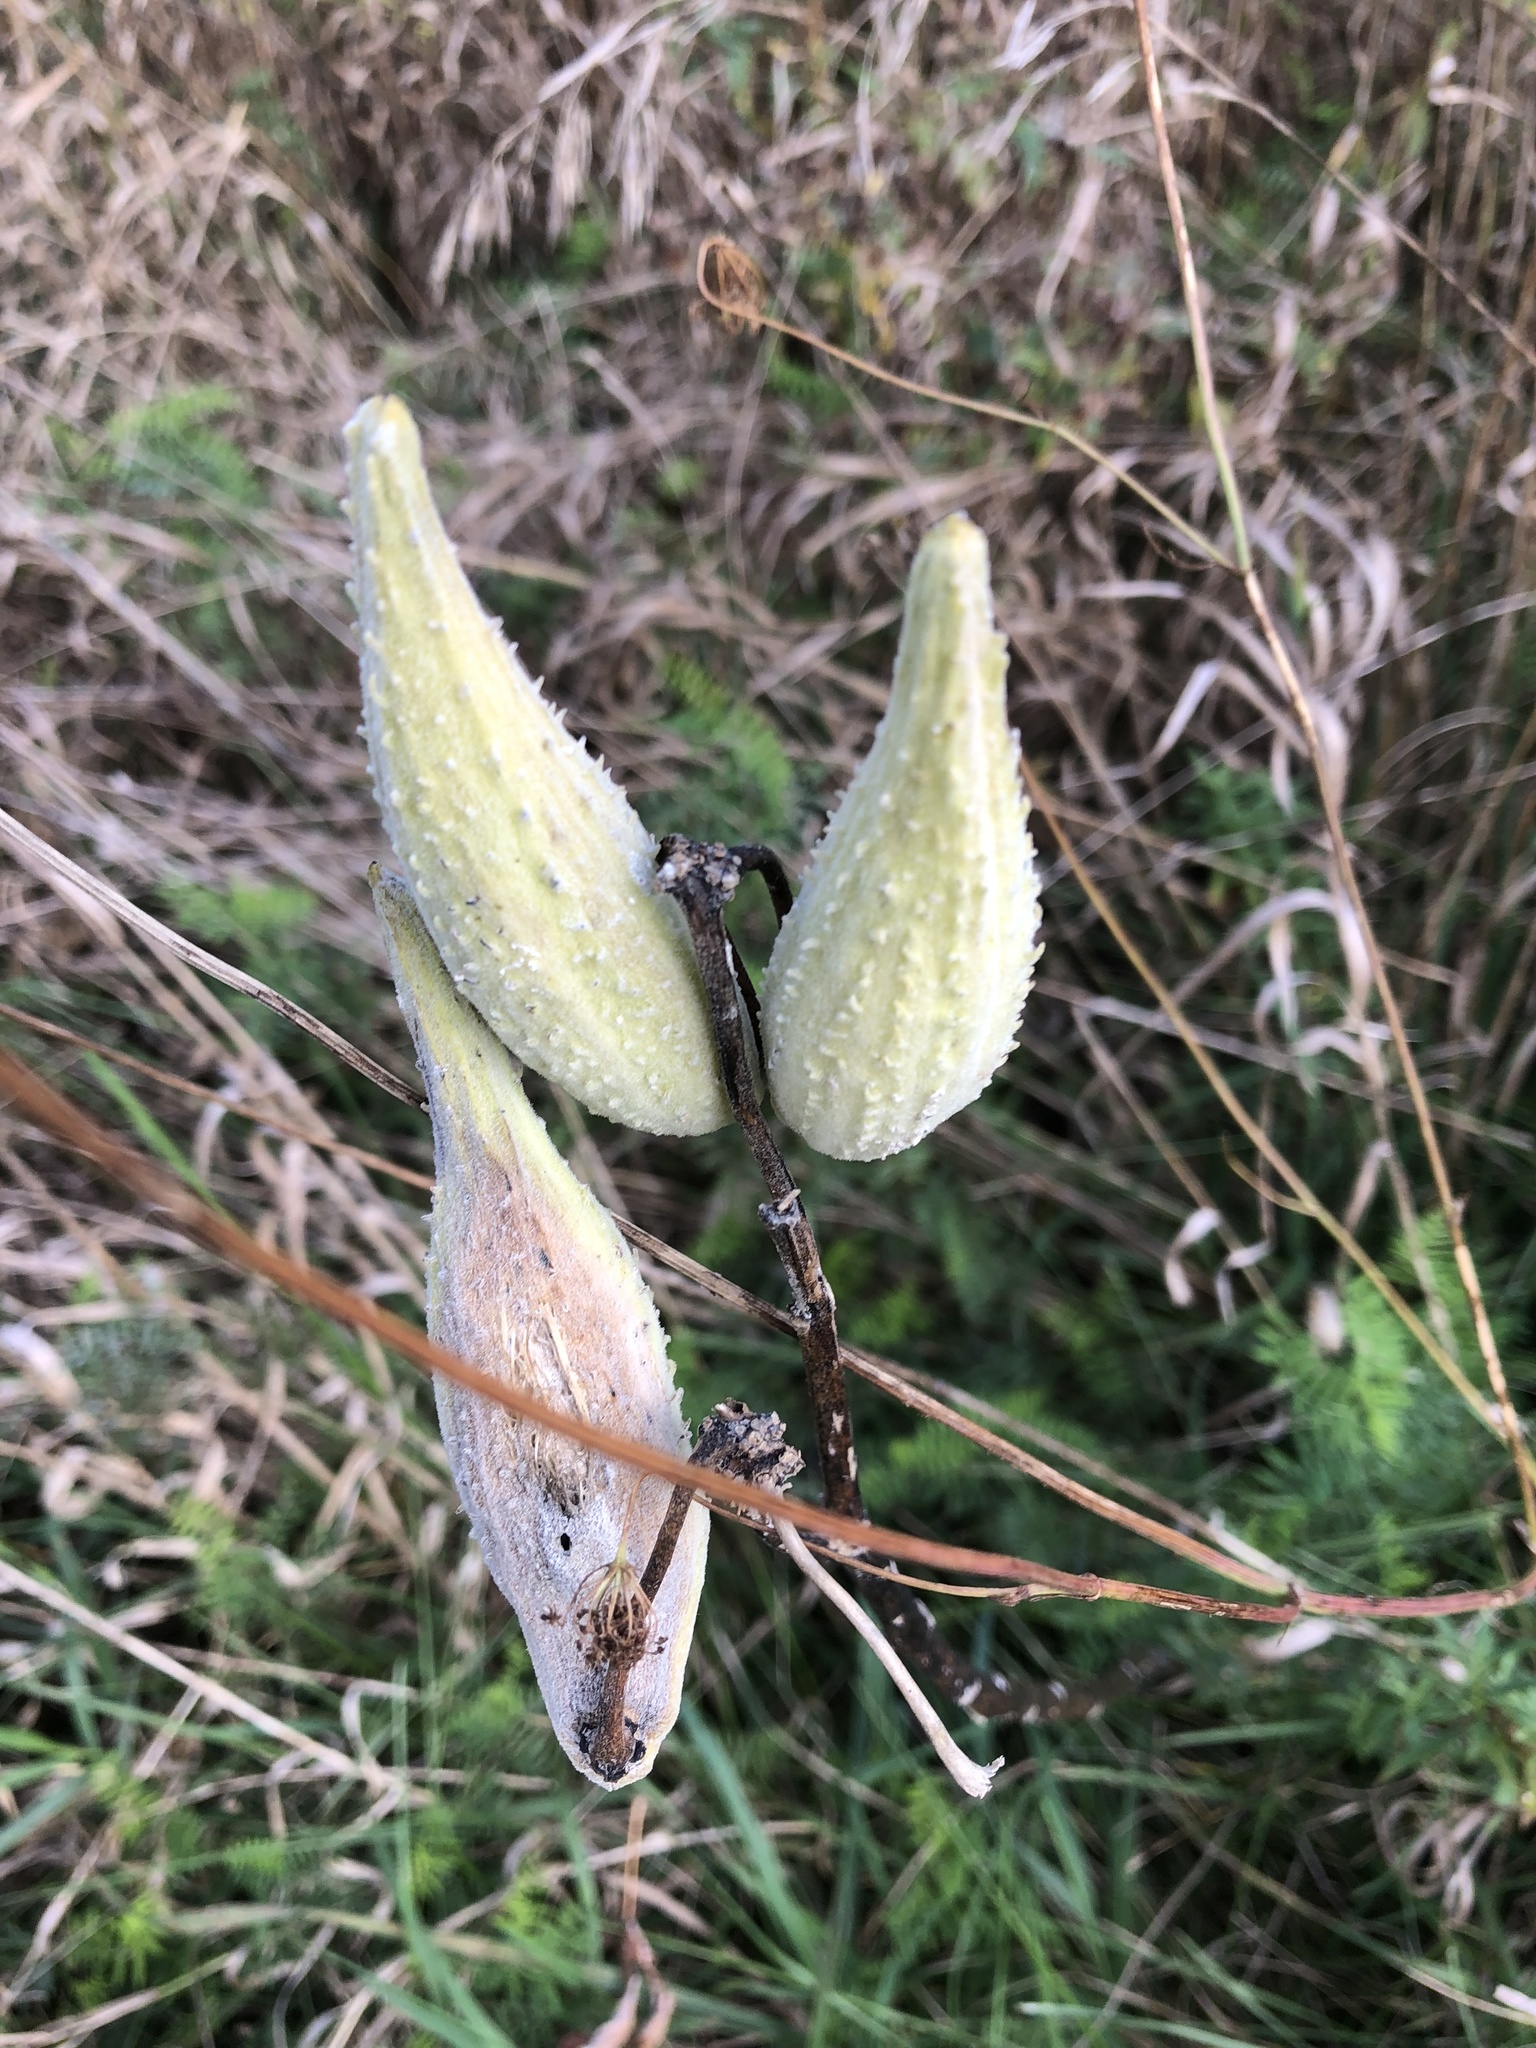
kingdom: Plantae
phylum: Tracheophyta
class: Magnoliopsida
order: Gentianales
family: Apocynaceae
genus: Asclepias
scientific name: Asclepias syriaca
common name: Common milkweed
